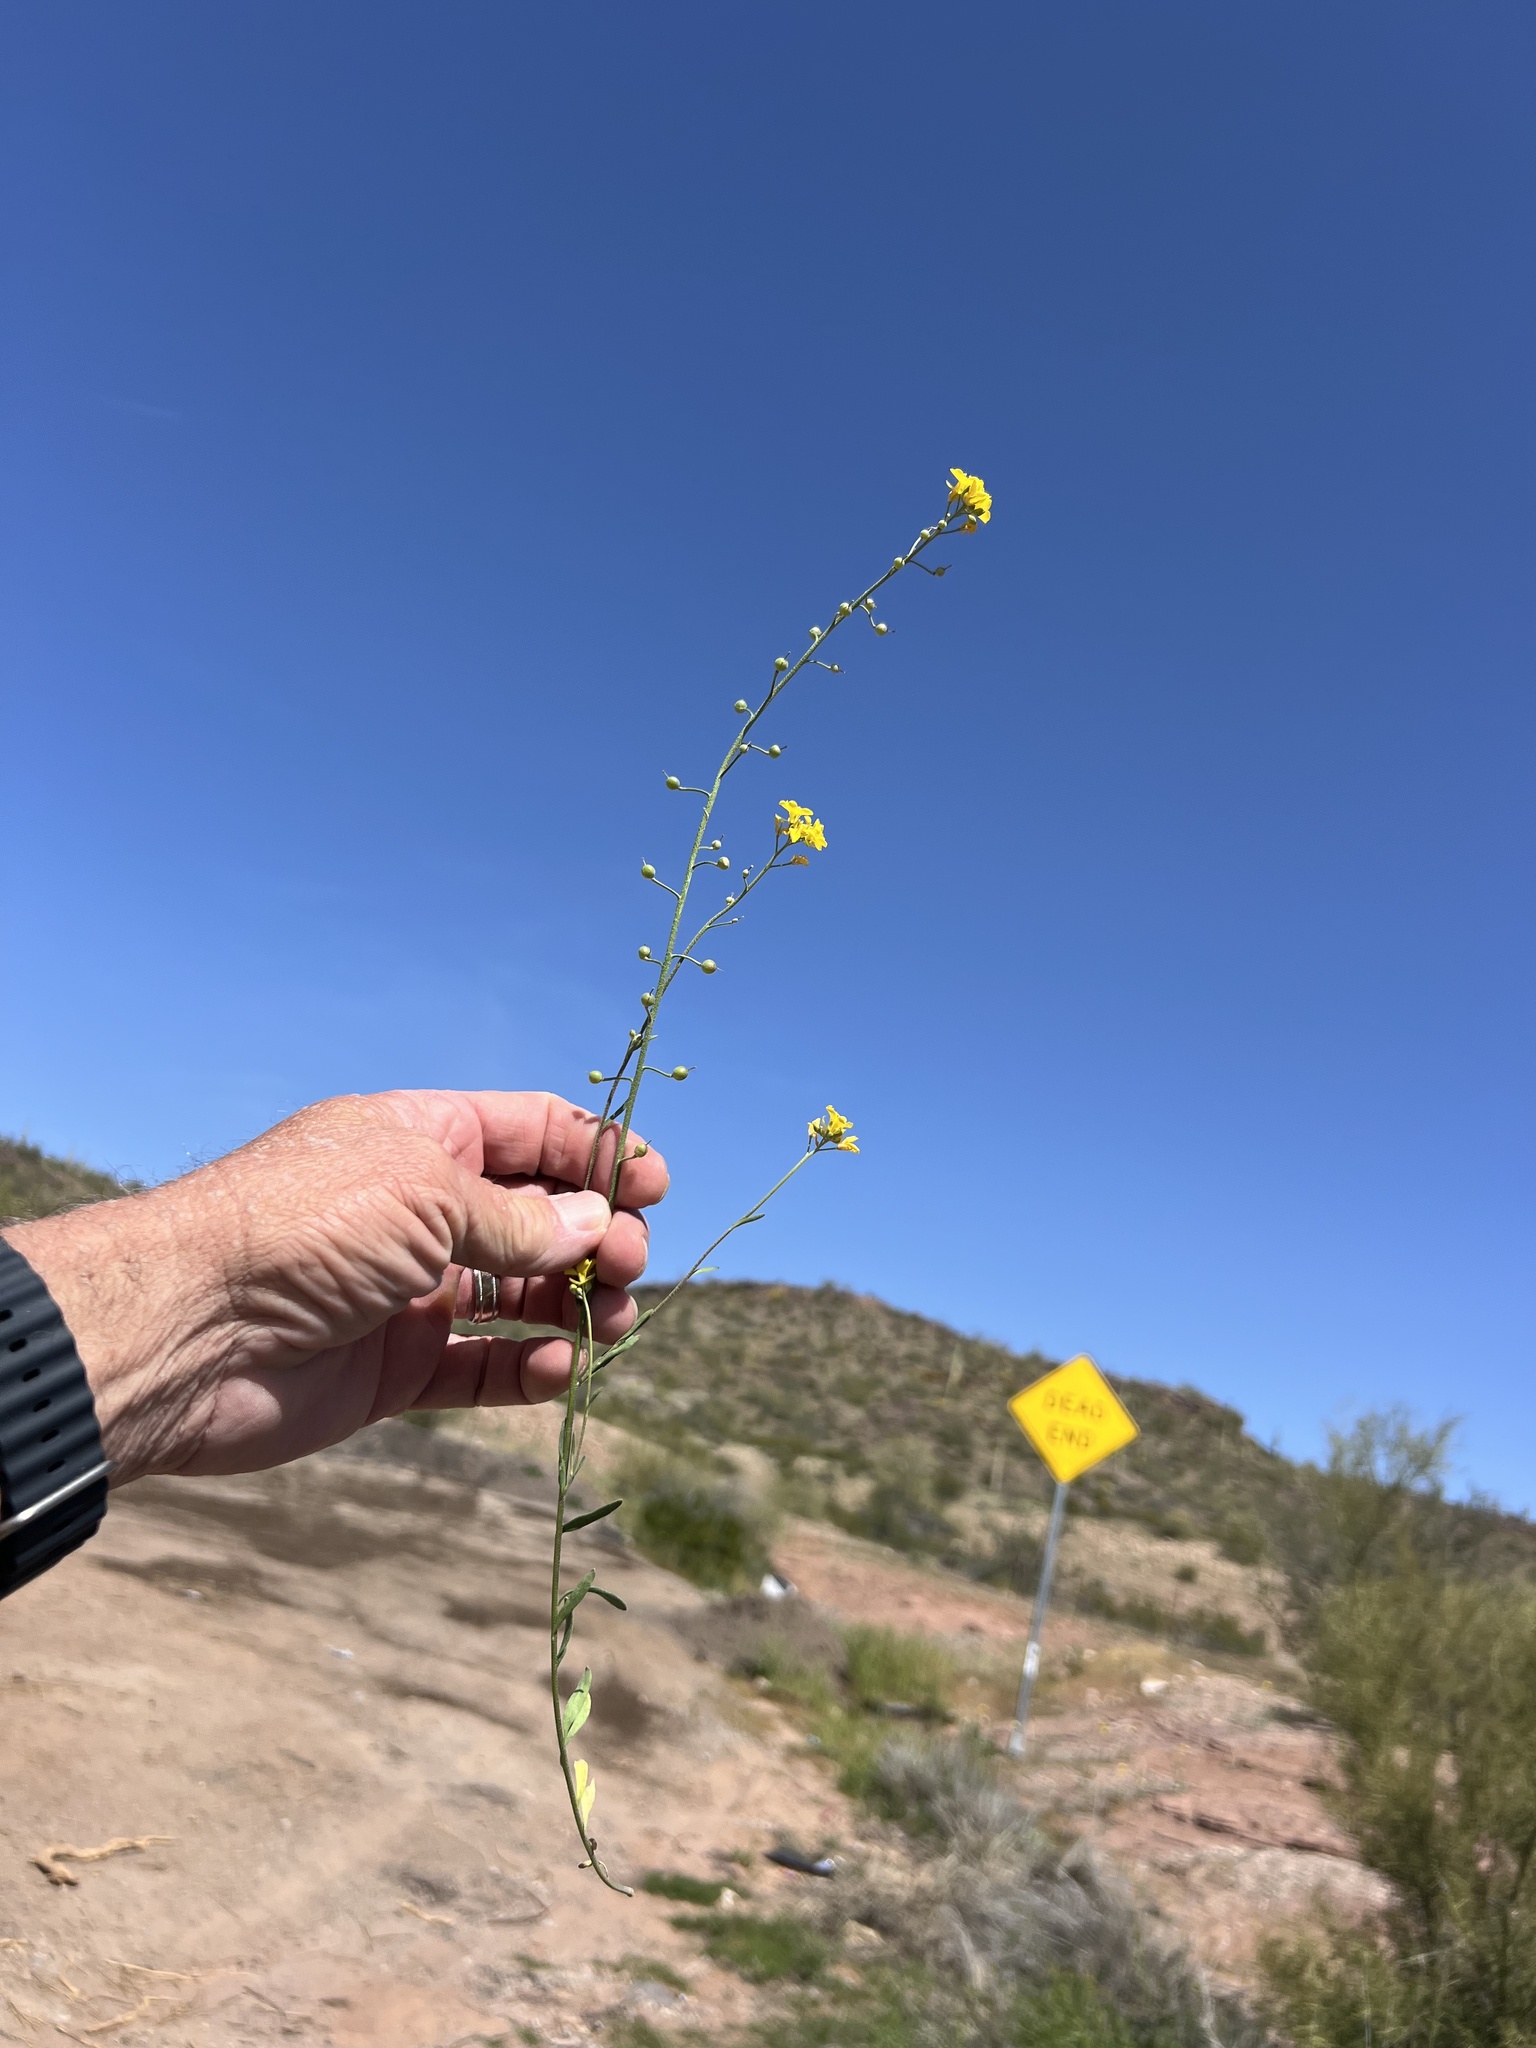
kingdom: Plantae
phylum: Tracheophyta
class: Magnoliopsida
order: Brassicales
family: Brassicaceae
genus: Physaria
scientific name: Physaria tenella
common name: Moapa bladderpod
